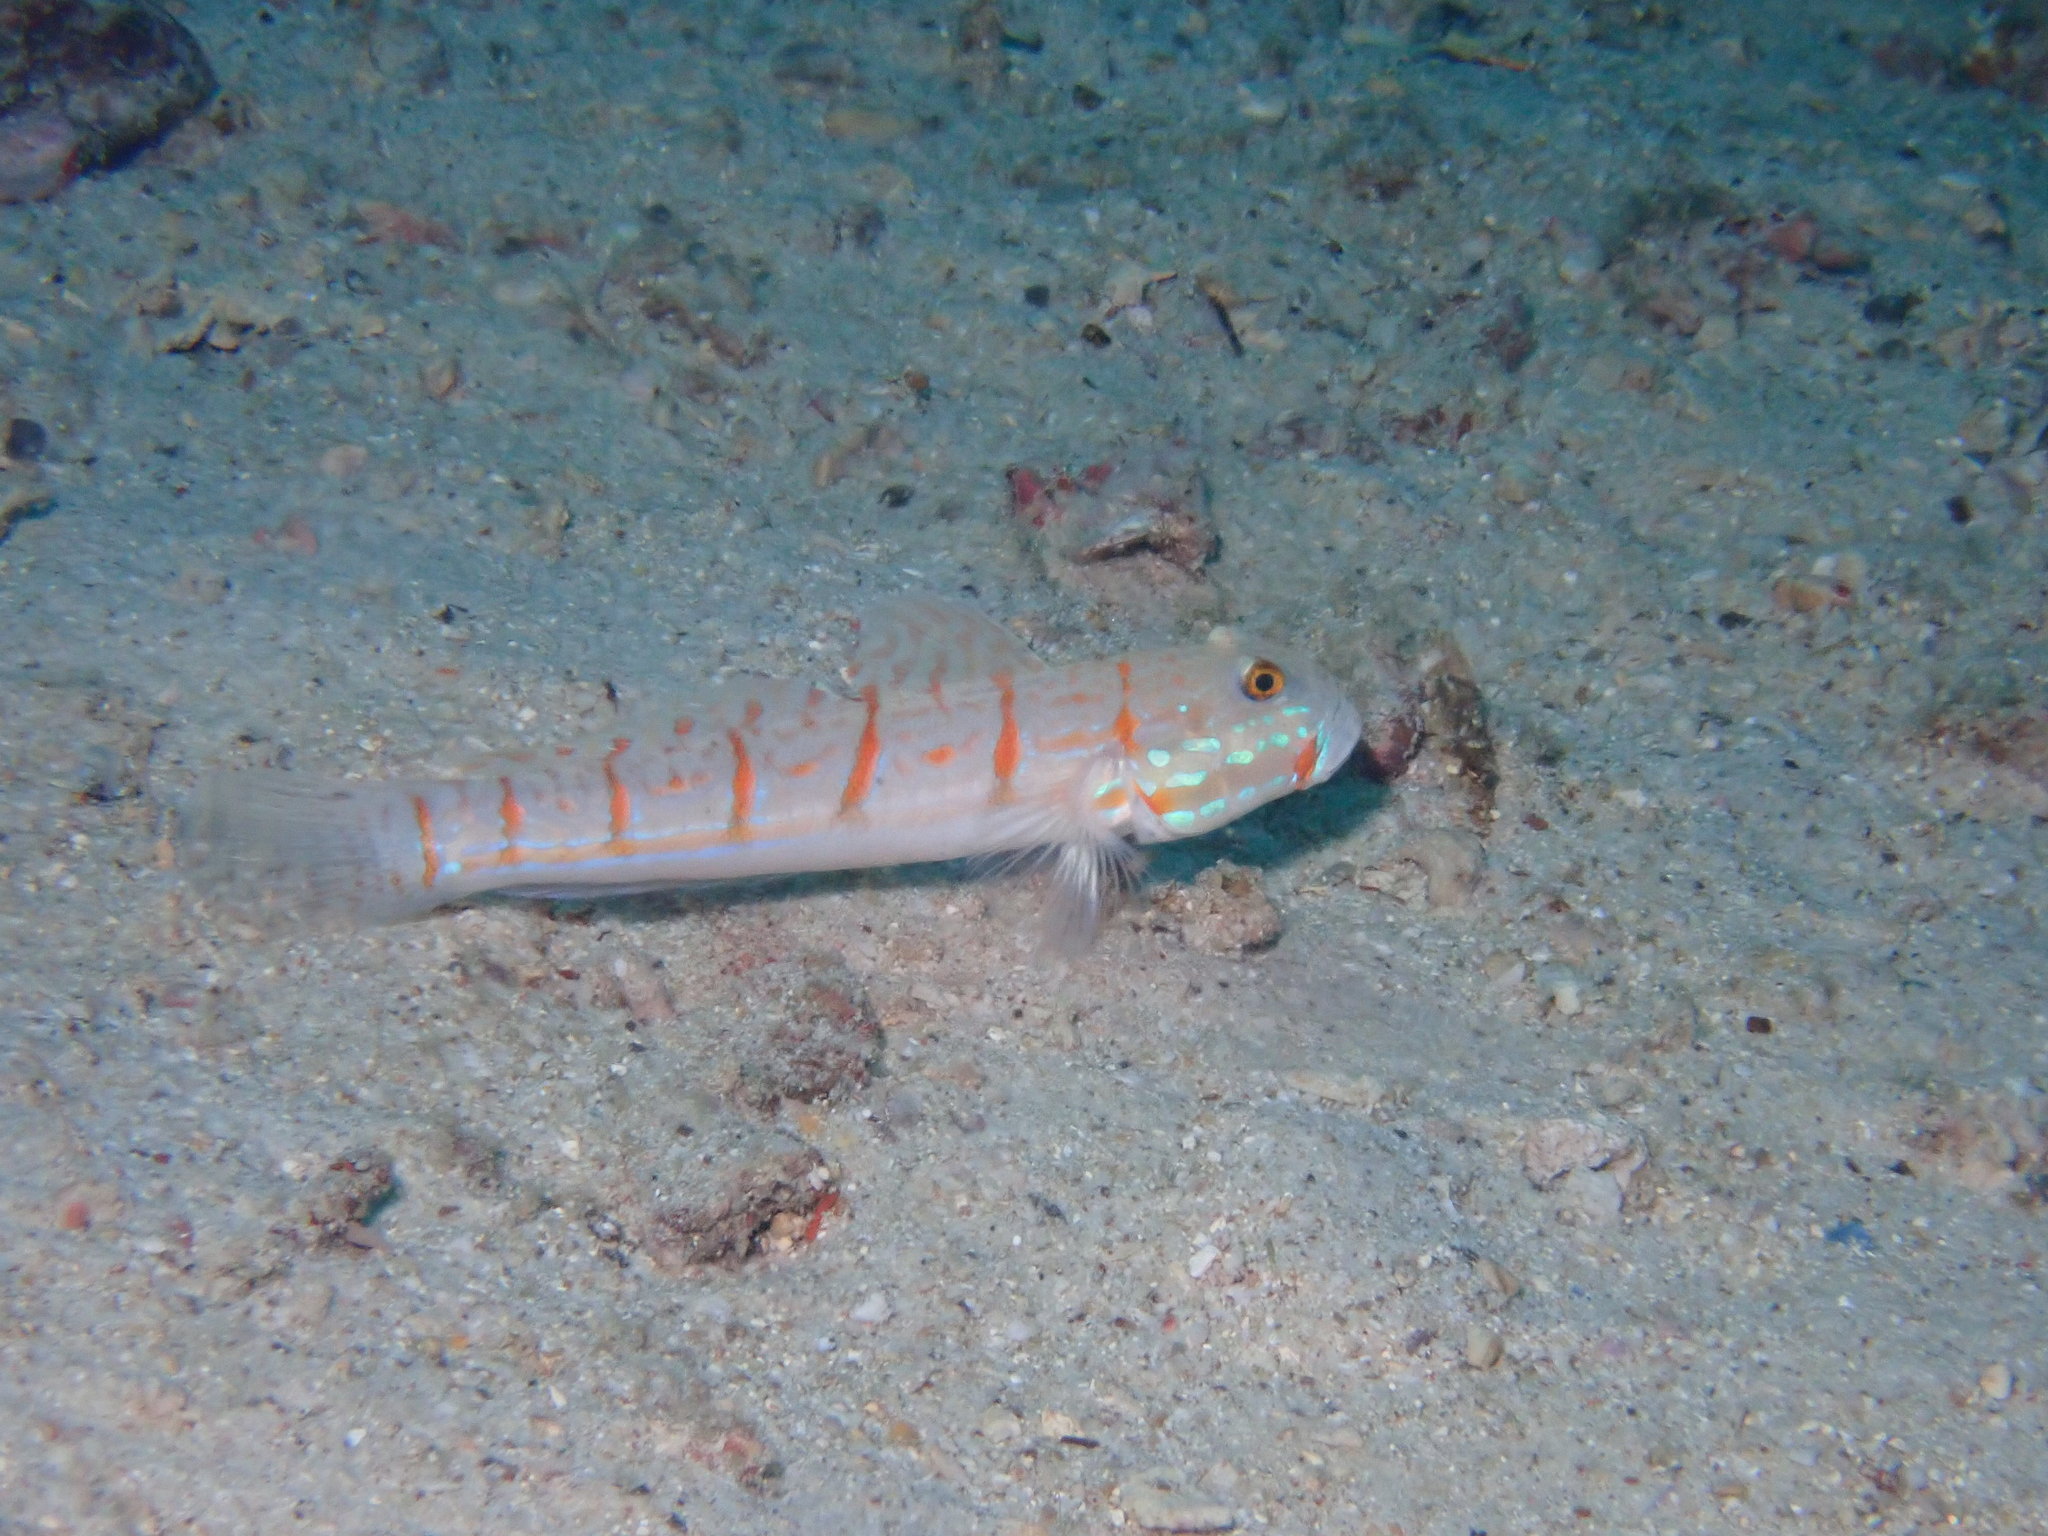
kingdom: Animalia
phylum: Chordata
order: Perciformes
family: Gobiidae
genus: Valenciennea
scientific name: Valenciennea puellaris
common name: Orange-dashed goby
